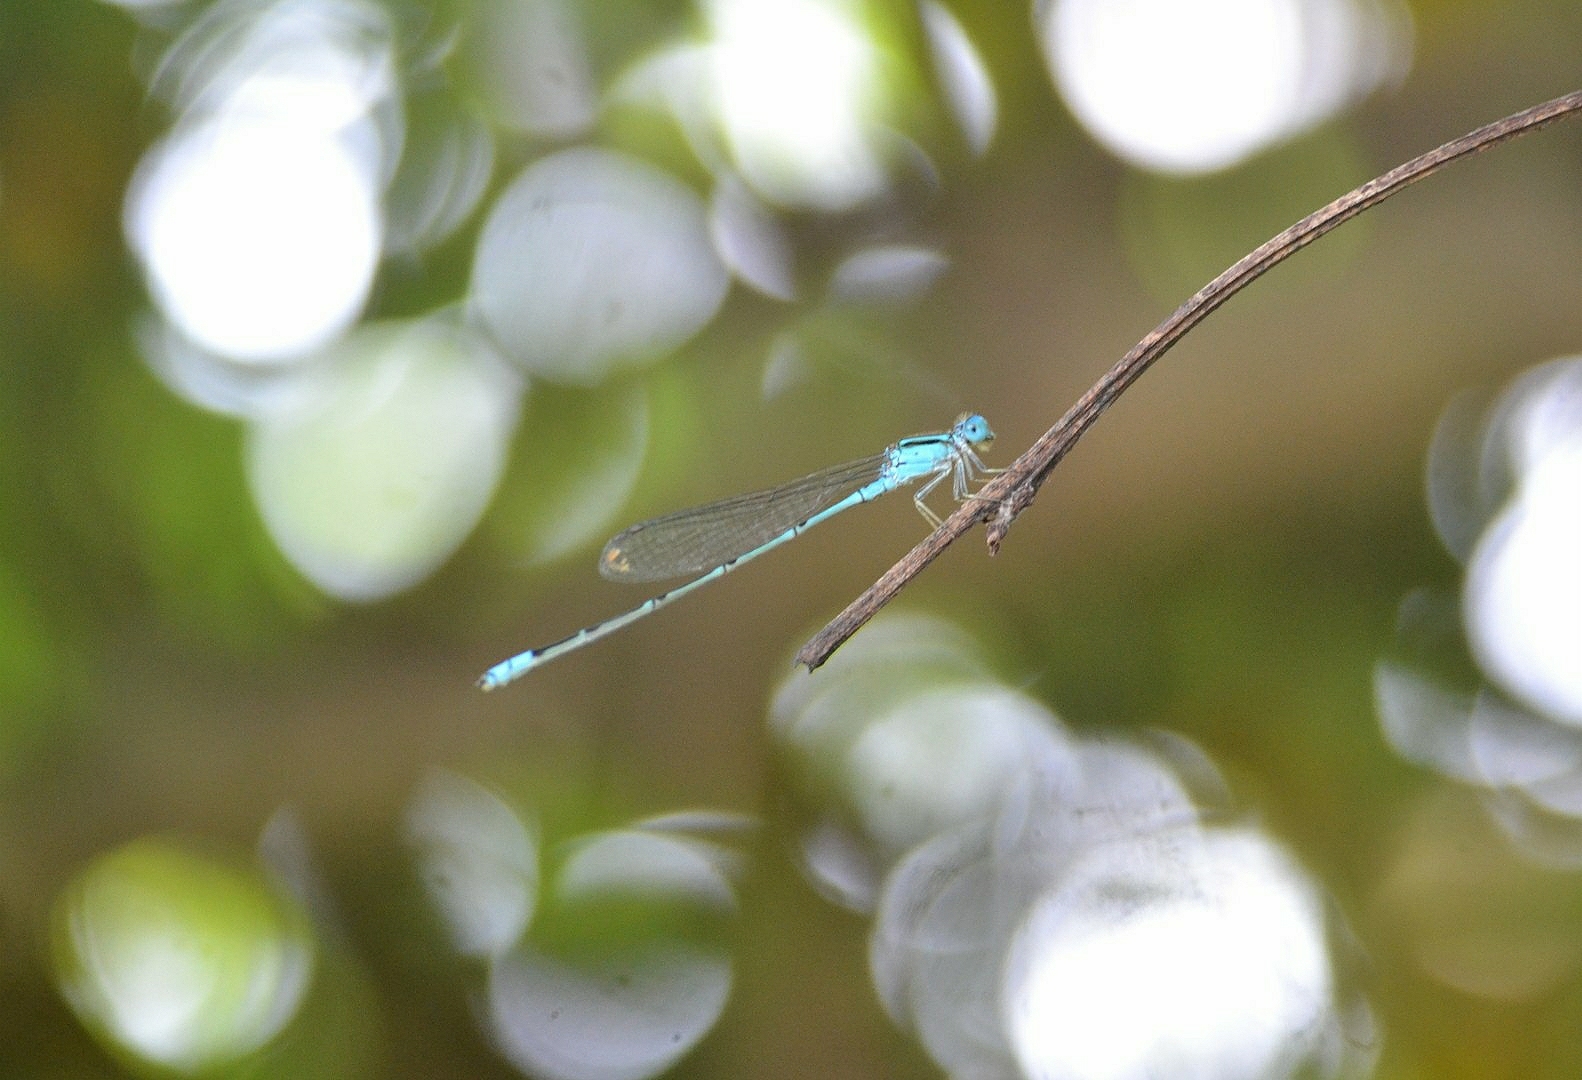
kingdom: Animalia
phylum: Arthropoda
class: Insecta
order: Odonata
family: Coenagrionidae
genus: Pseudagrion
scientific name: Pseudagrion microcephalum
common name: Blue riverdamsel
